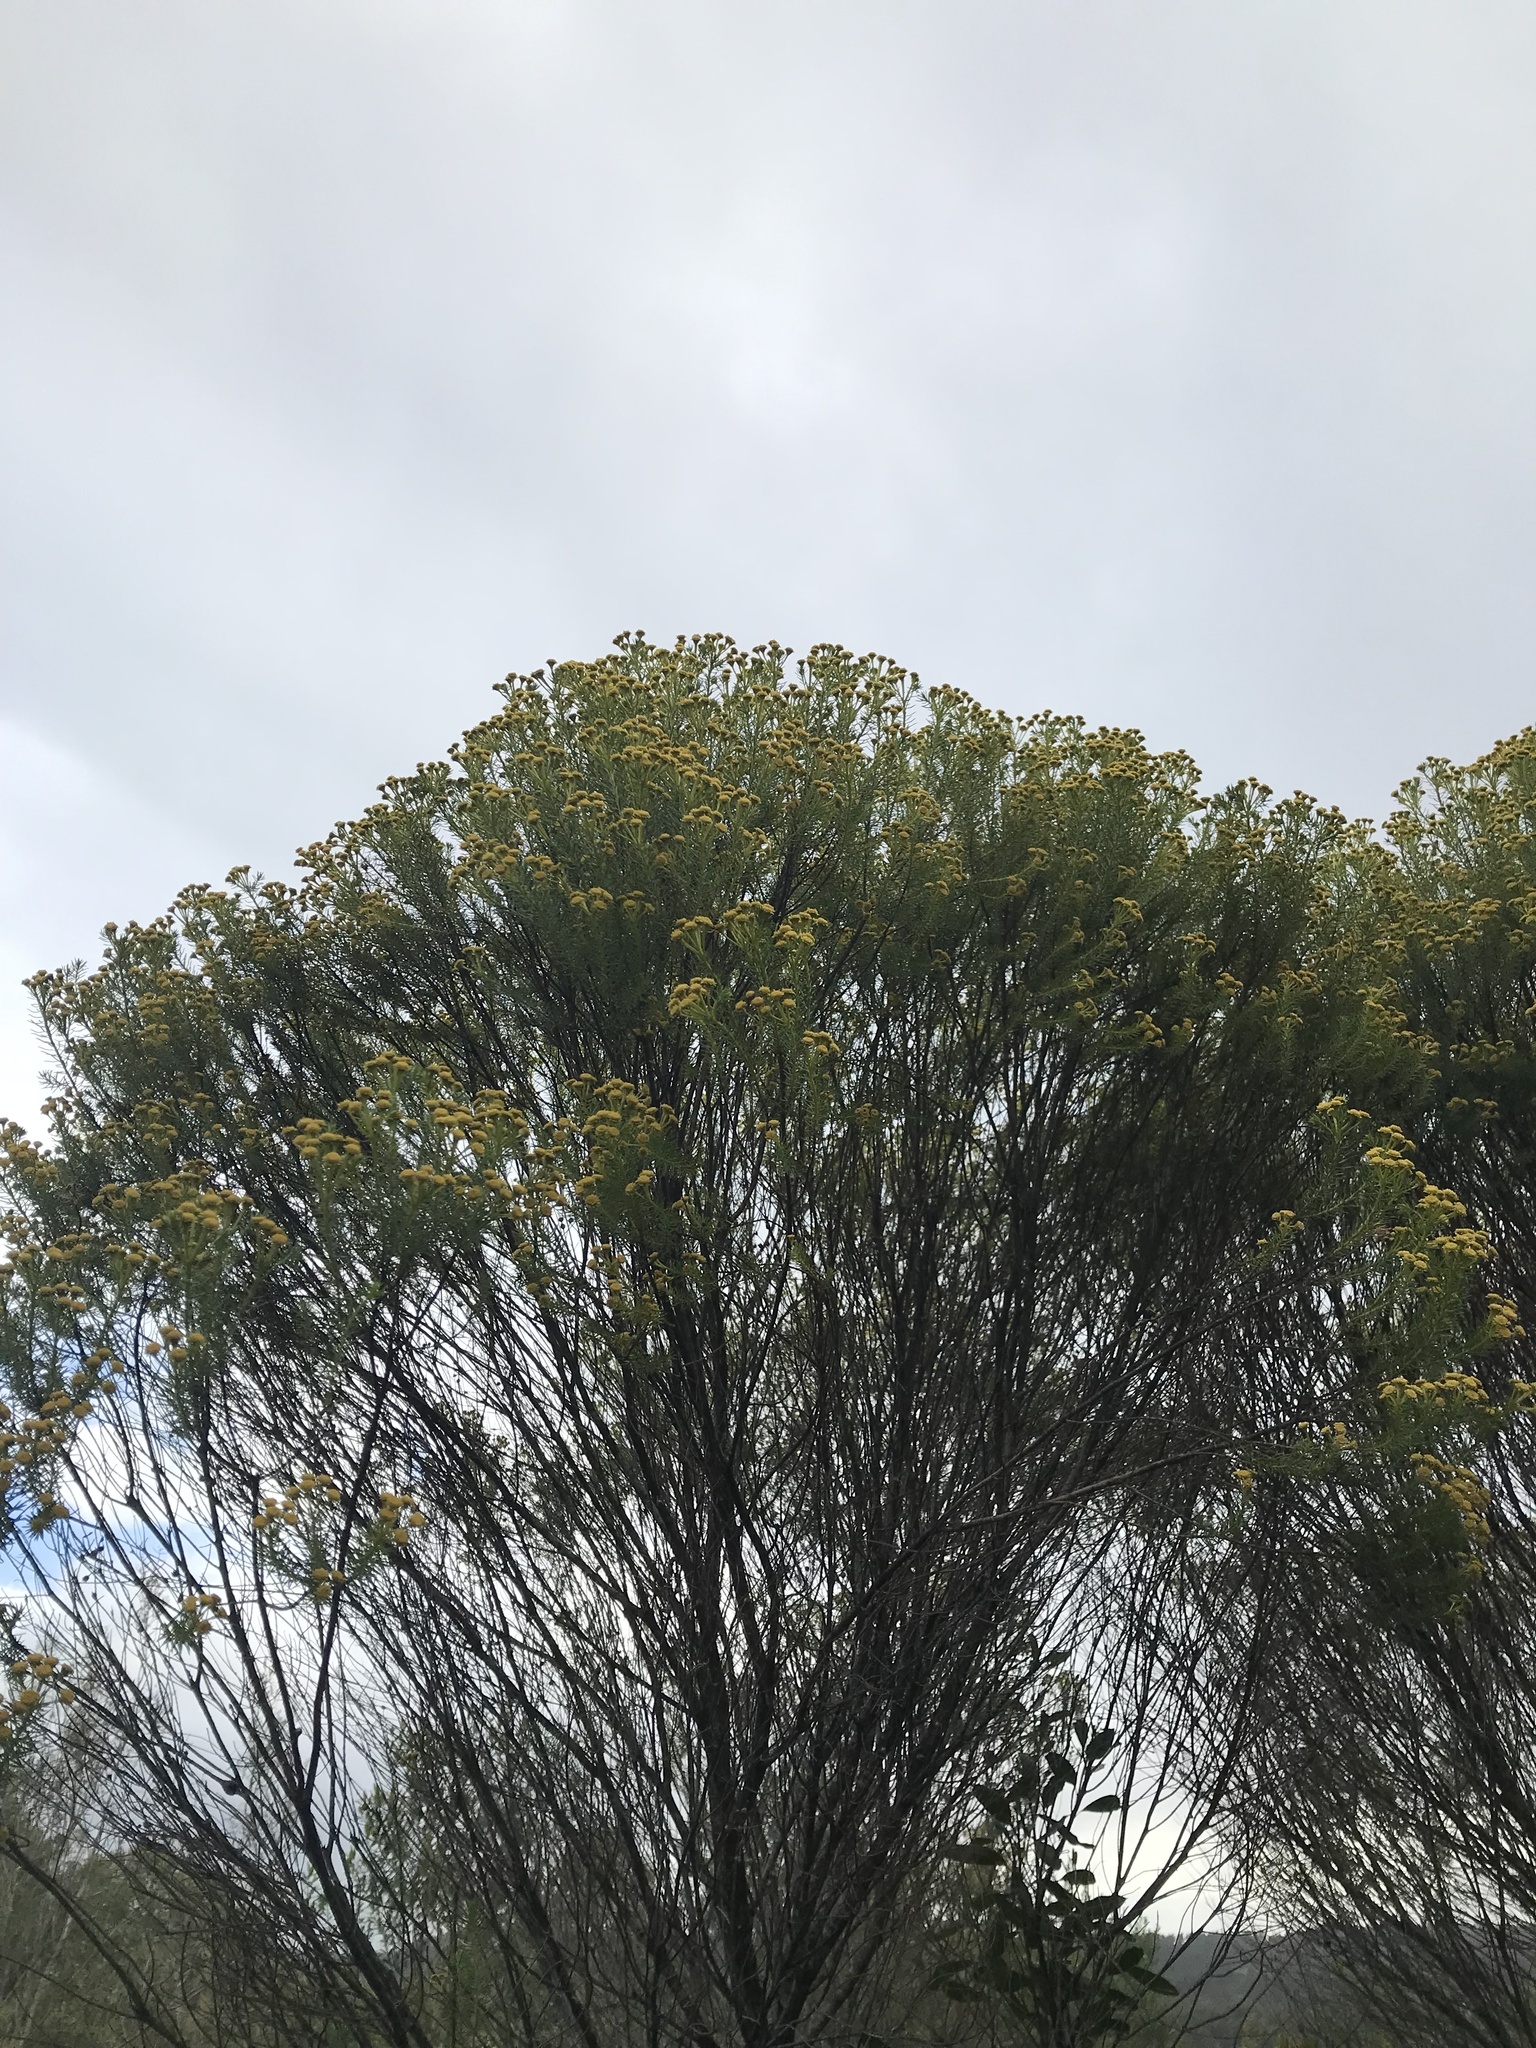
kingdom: Plantae
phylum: Tracheophyta
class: Magnoliopsida
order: Asterales
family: Asteraceae
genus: Baccharis
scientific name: Baccharis aliena
